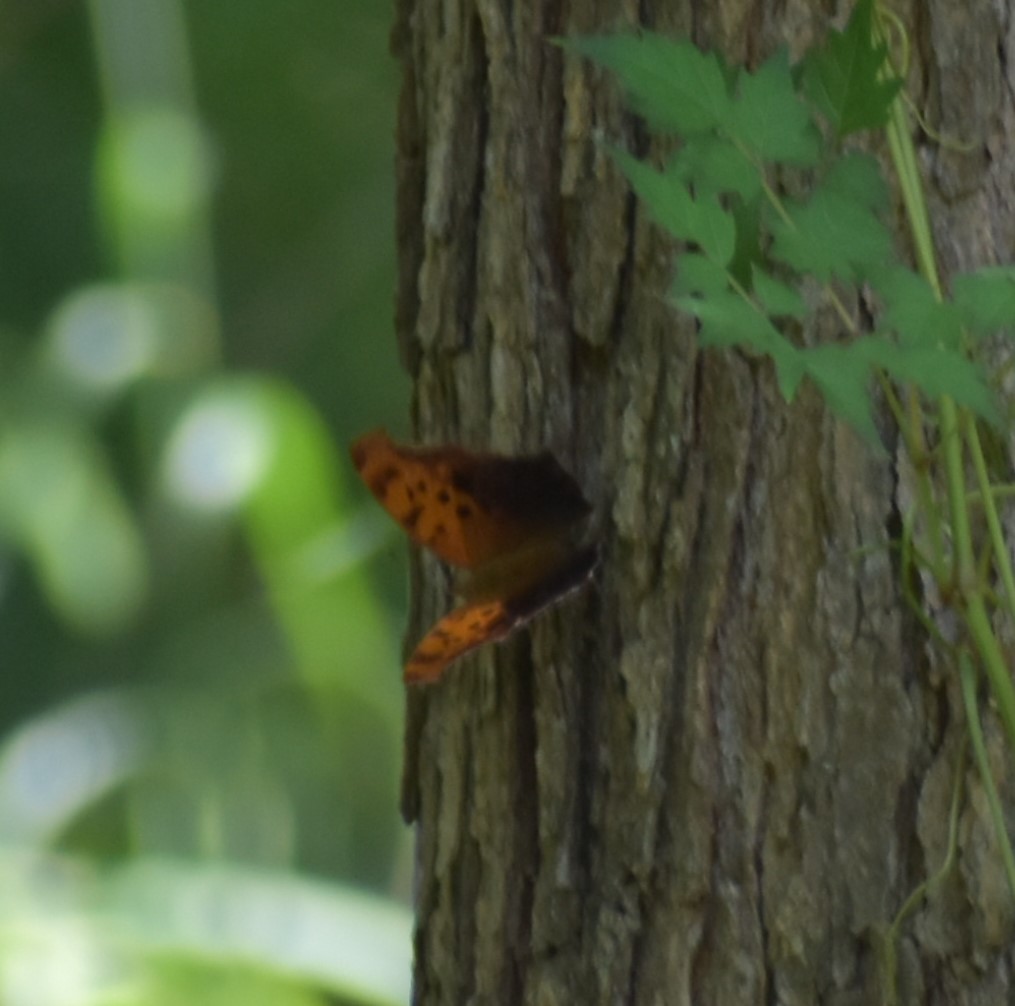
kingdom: Animalia
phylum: Arthropoda
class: Insecta
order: Lepidoptera
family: Nymphalidae
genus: Polygonia
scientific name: Polygonia interrogationis
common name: Question mark
